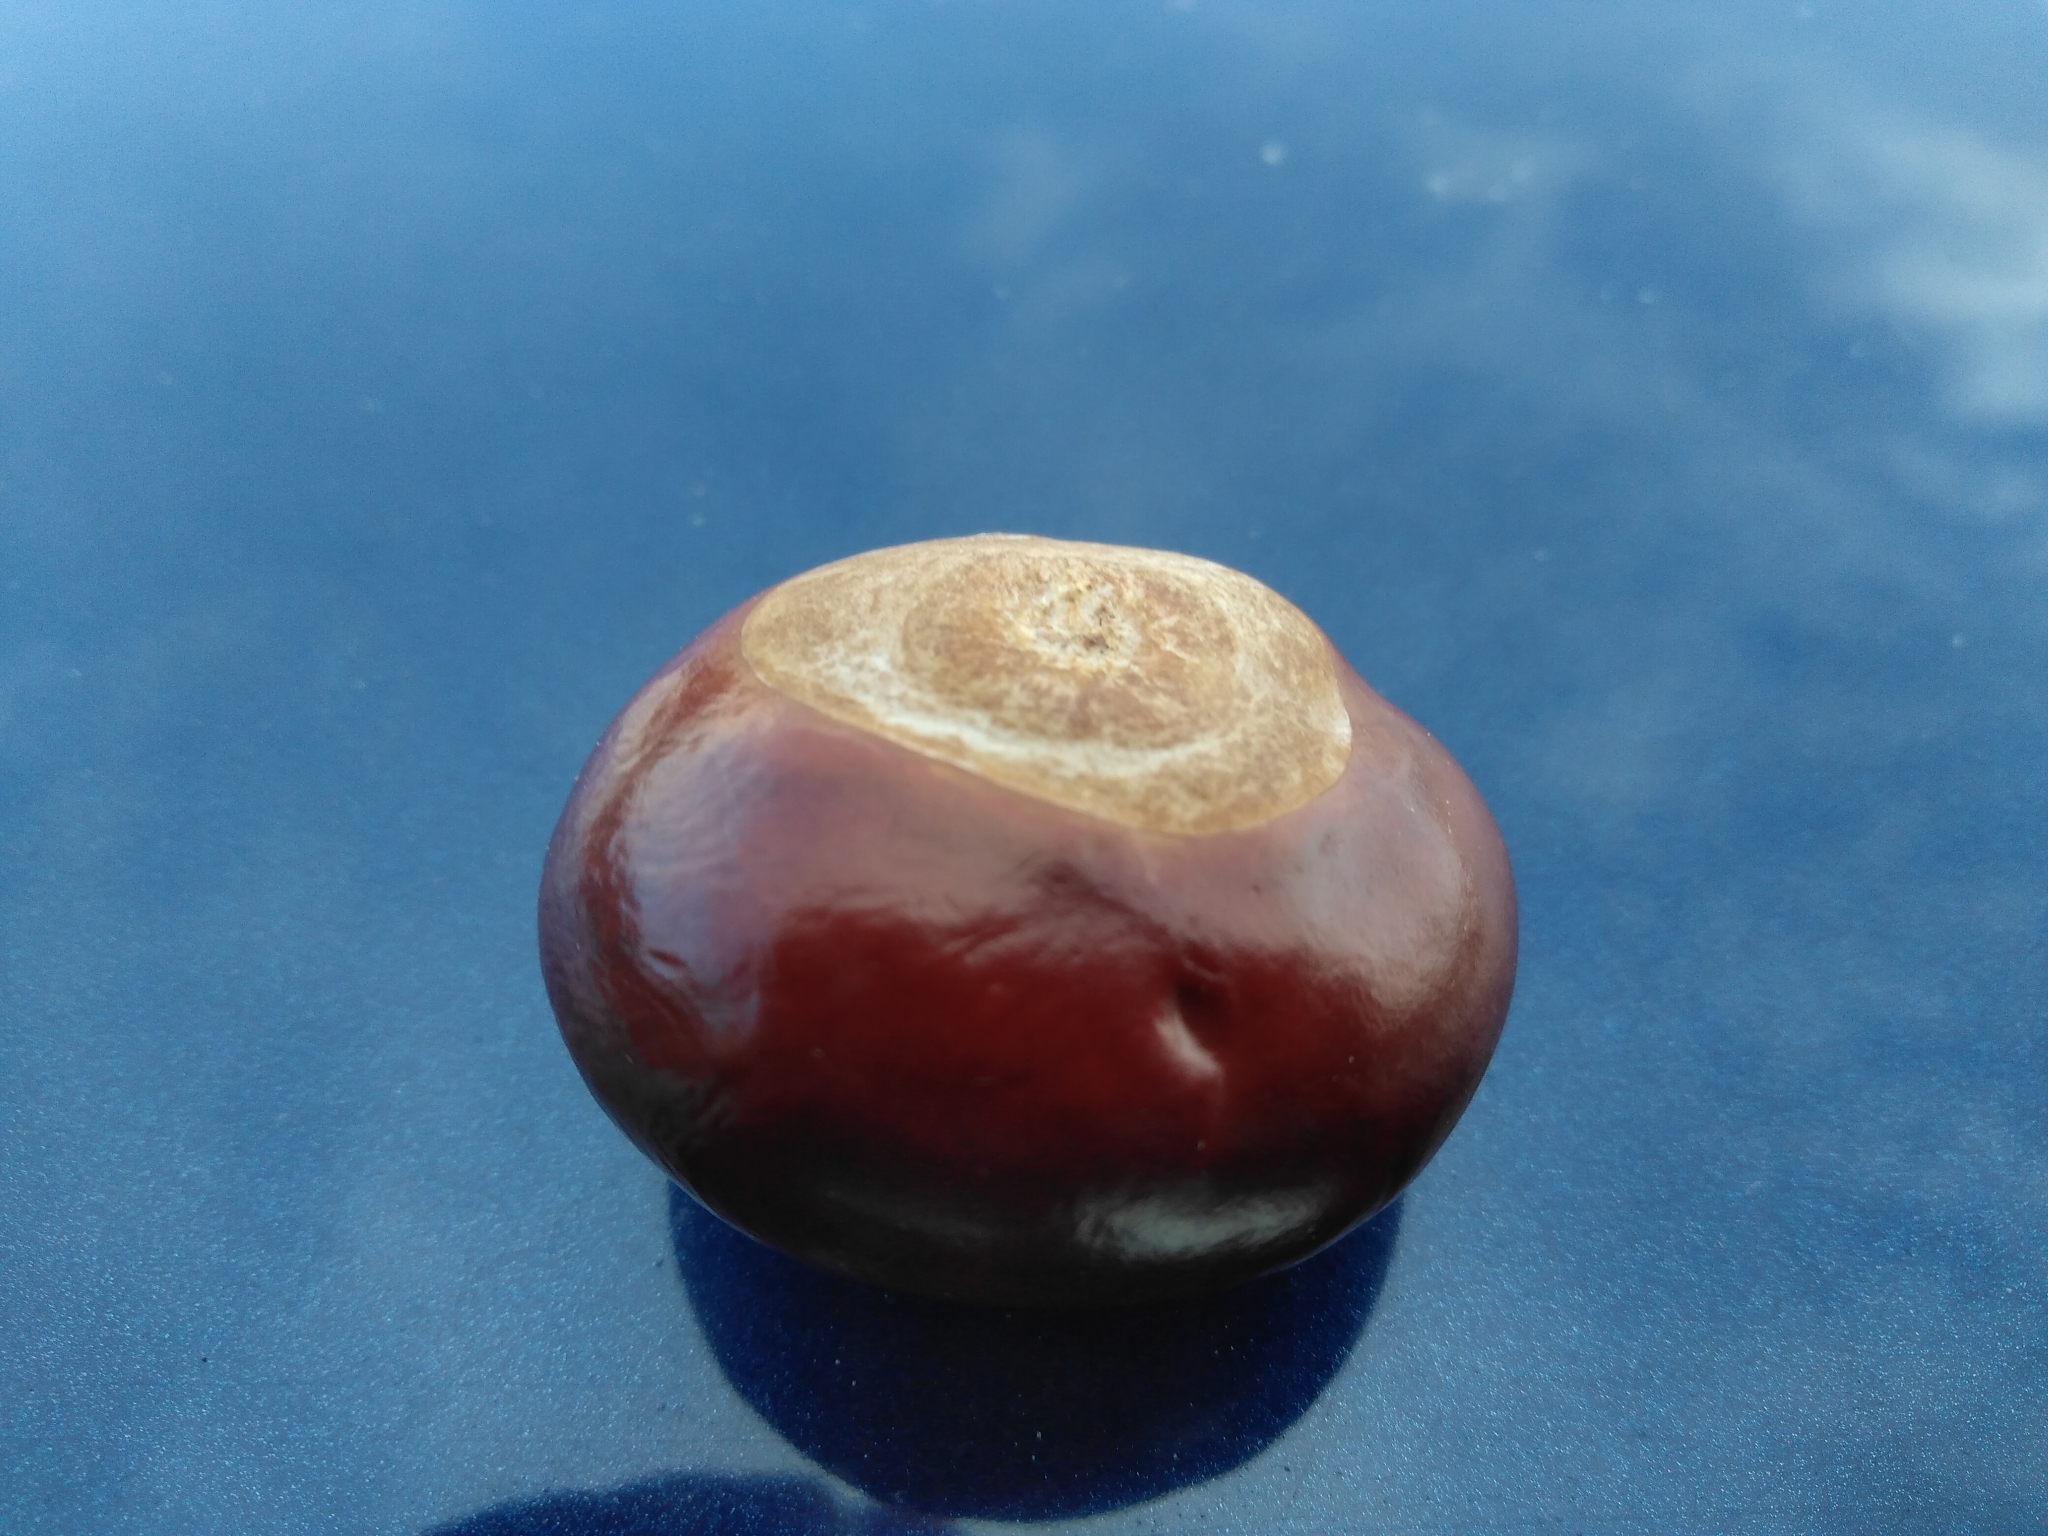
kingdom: Plantae
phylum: Tracheophyta
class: Magnoliopsida
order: Sapindales
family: Sapindaceae
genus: Aesculus
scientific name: Aesculus hippocastanum
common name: Horse-chestnut
